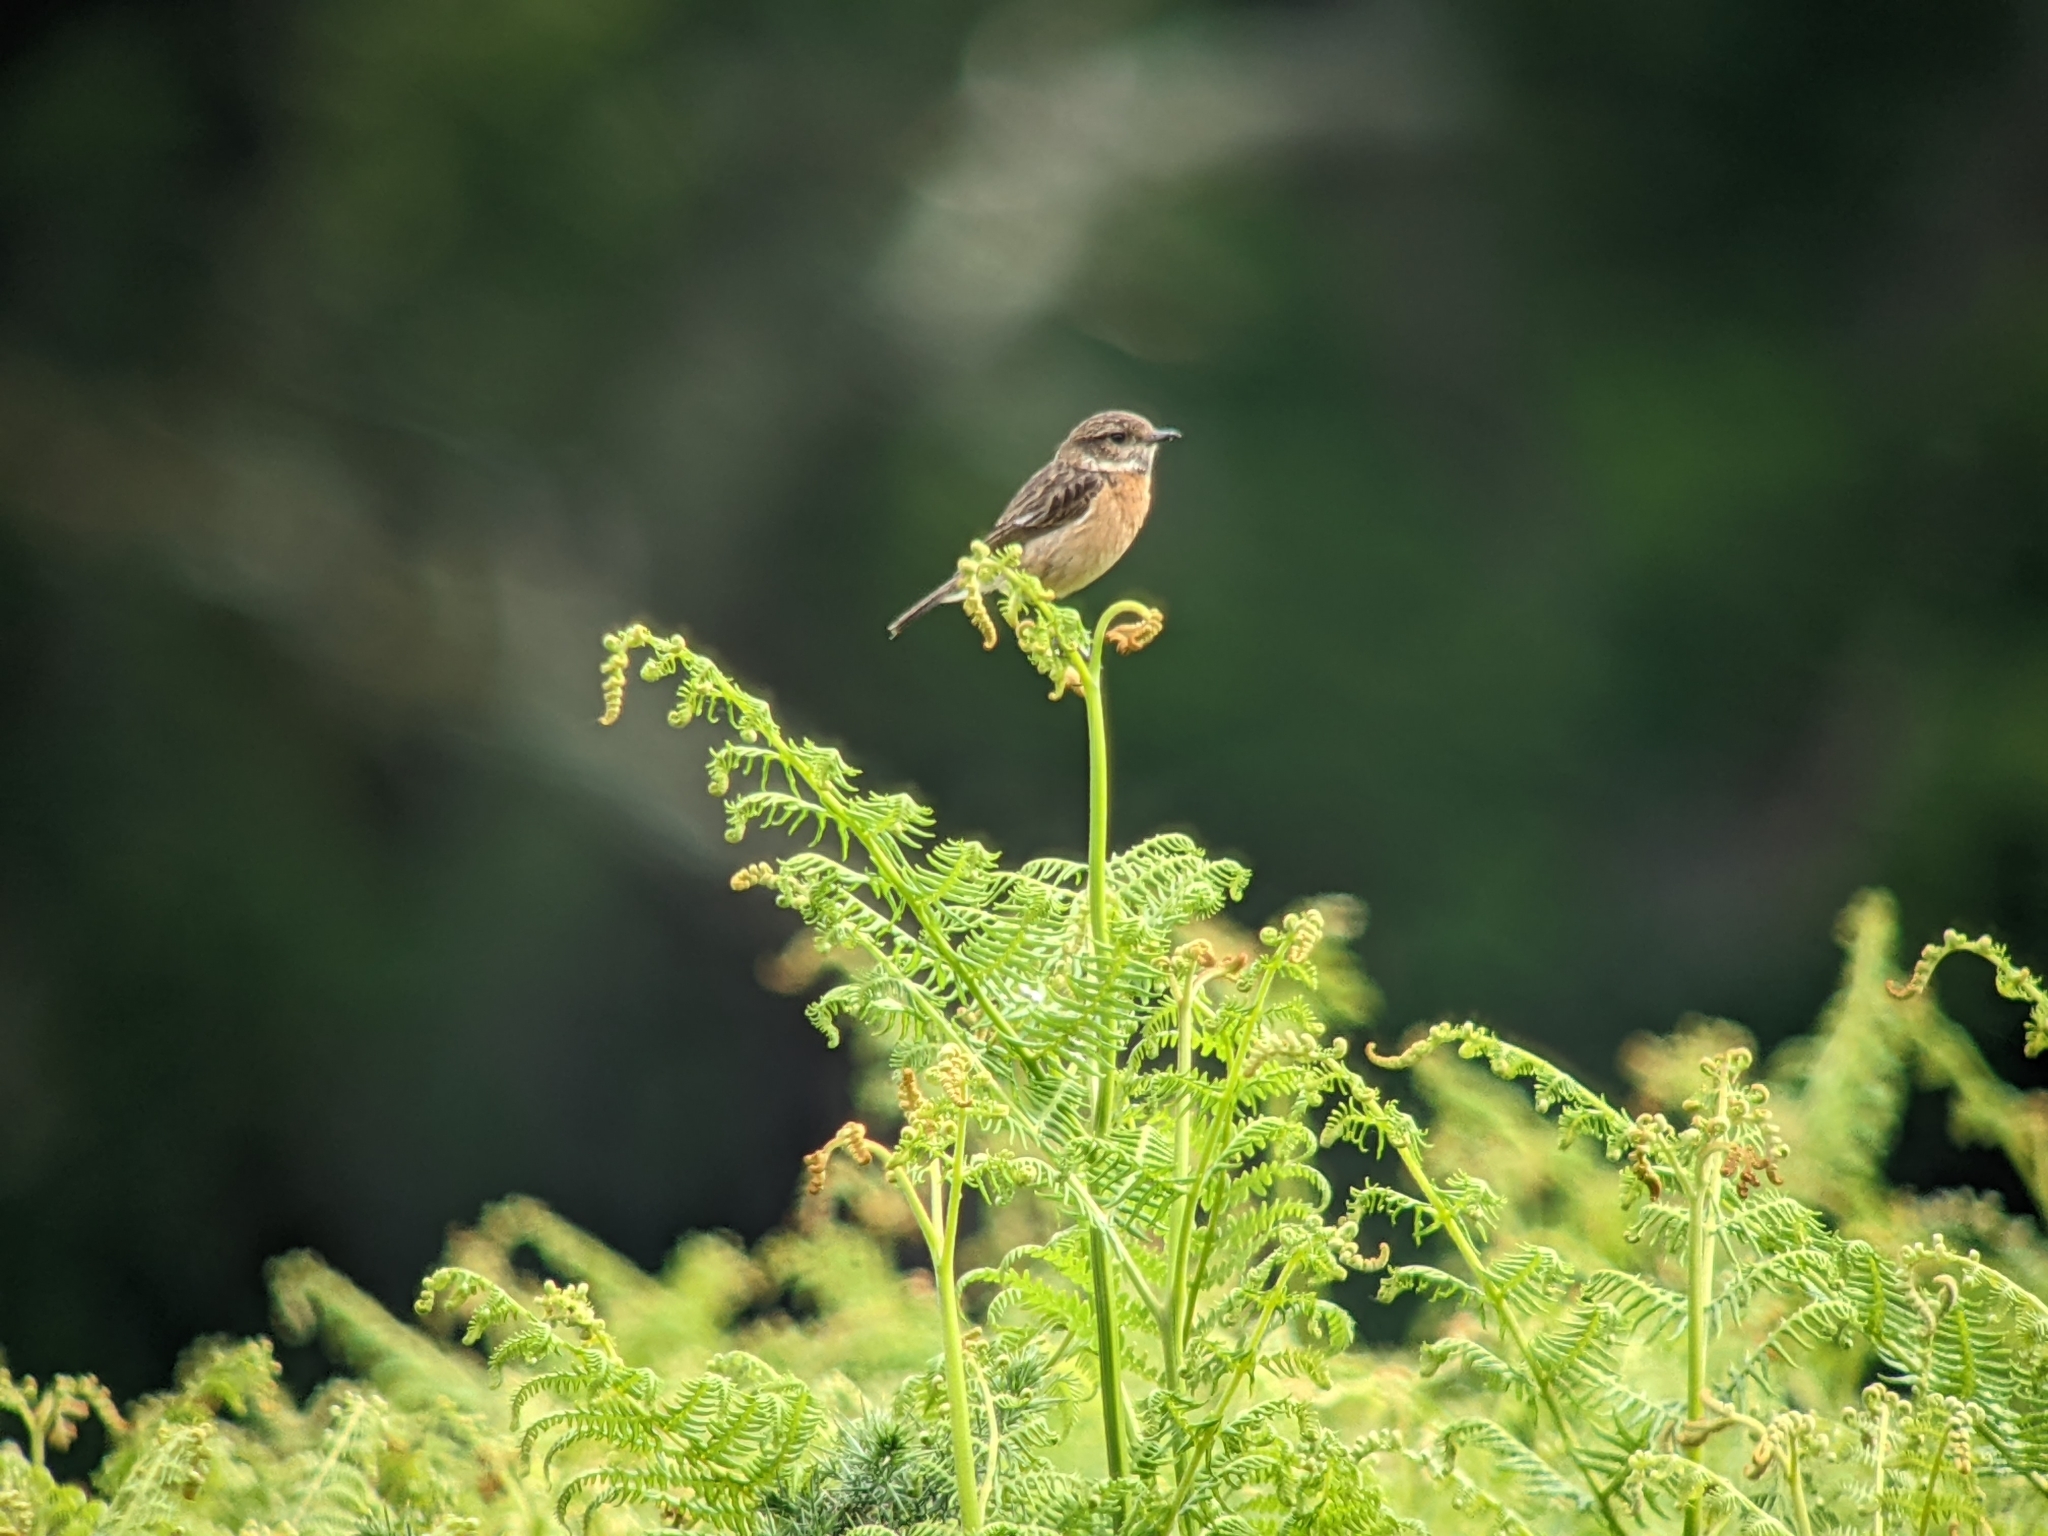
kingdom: Animalia
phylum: Chordata
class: Aves
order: Passeriformes
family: Muscicapidae
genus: Saxicola
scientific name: Saxicola rubicola
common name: European stonechat
